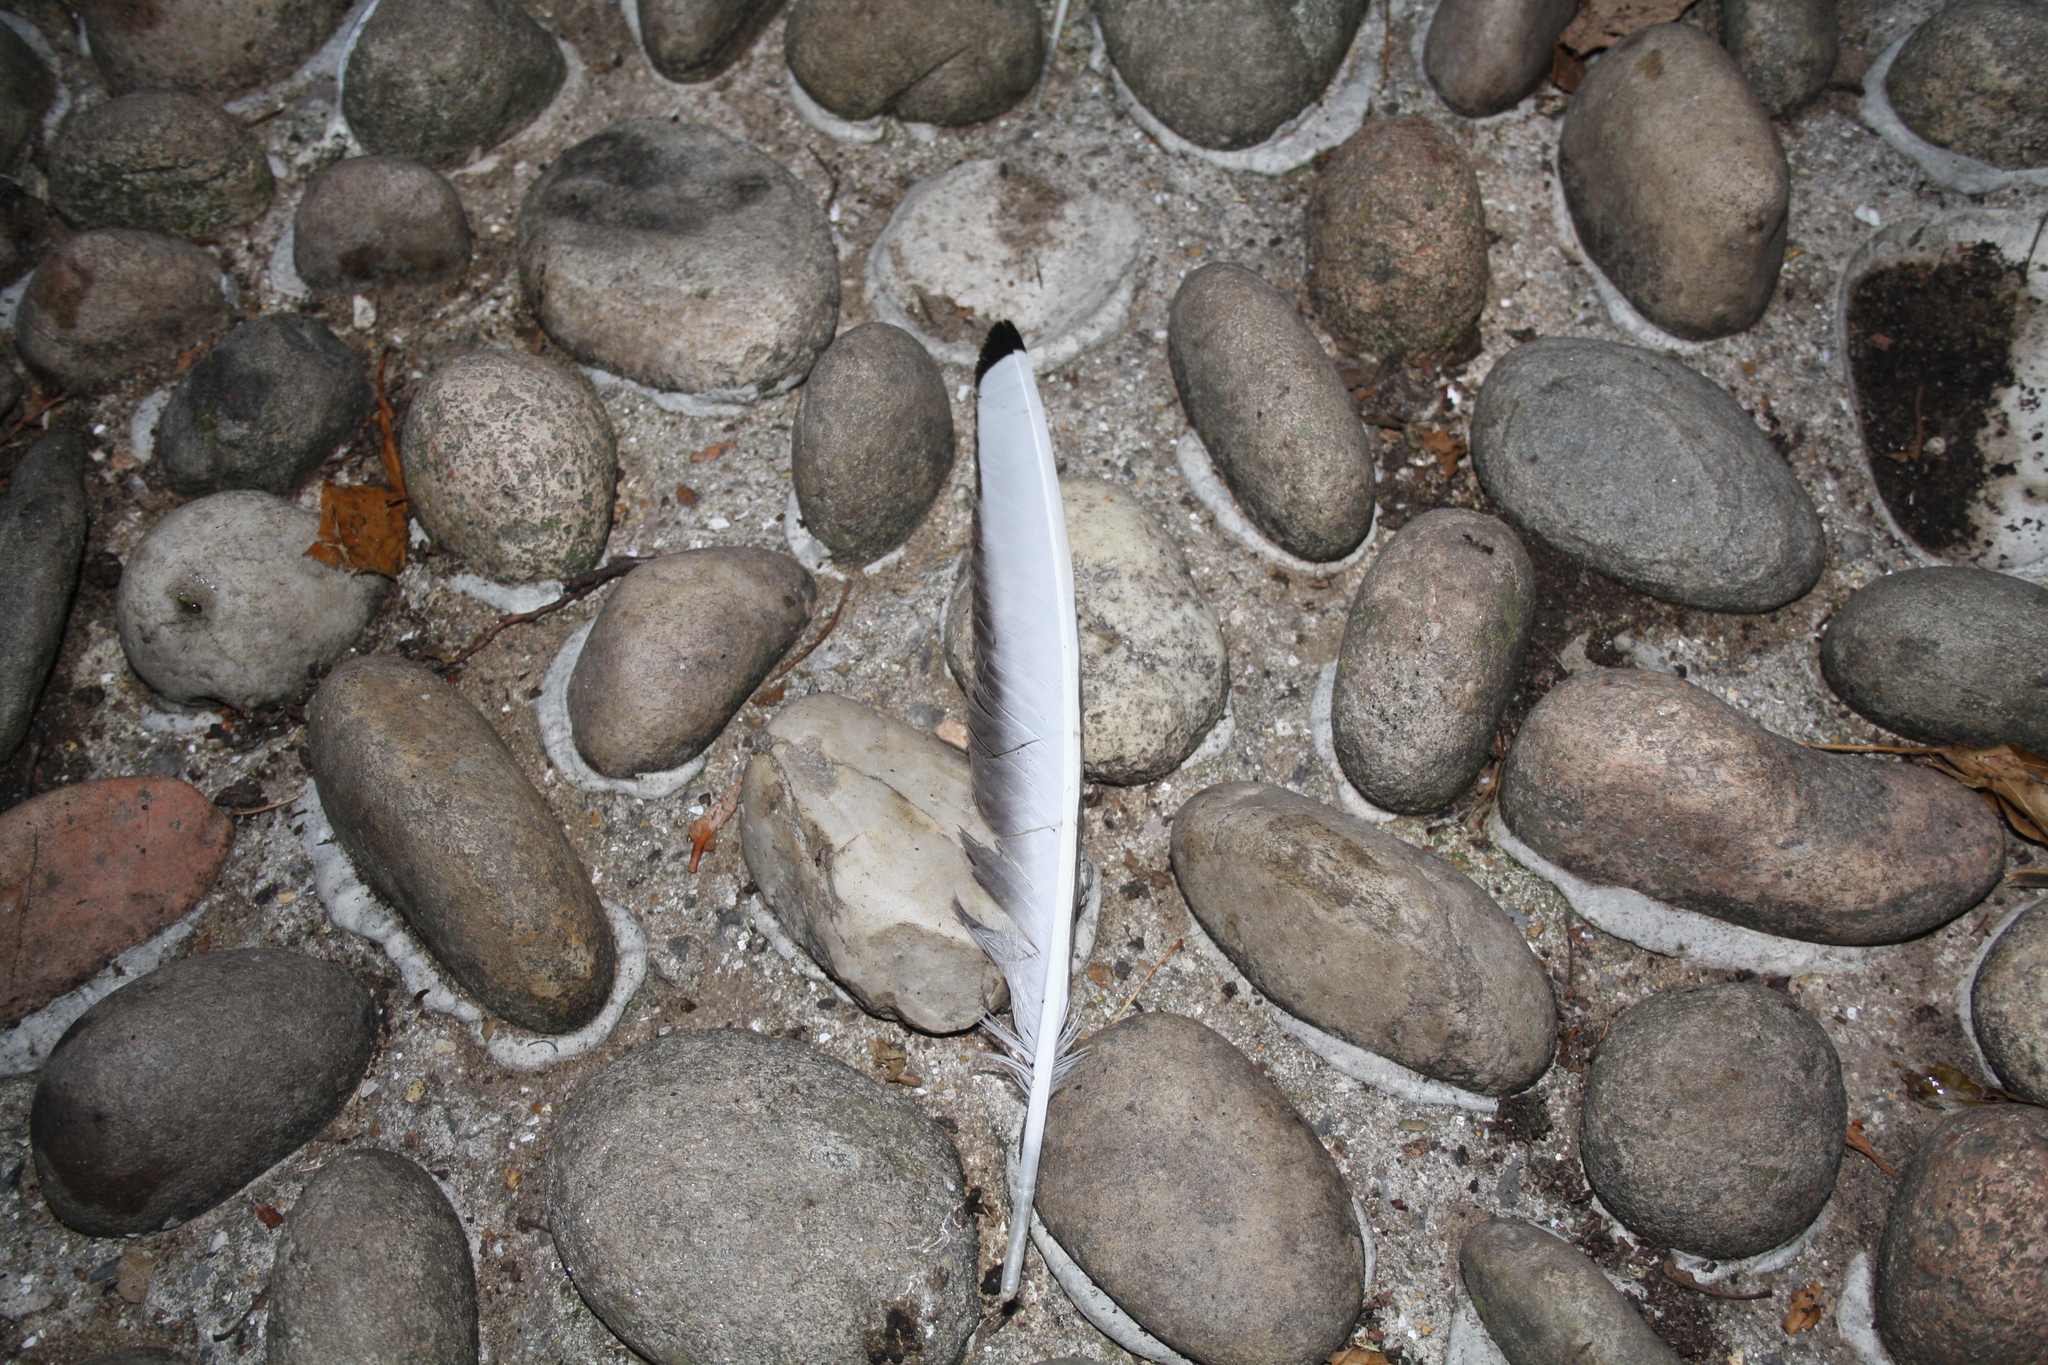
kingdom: Animalia
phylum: Chordata
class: Aves
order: Charadriiformes
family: Laridae
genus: Chroicocephalus
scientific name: Chroicocephalus ridibundus
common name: Black-headed gull
